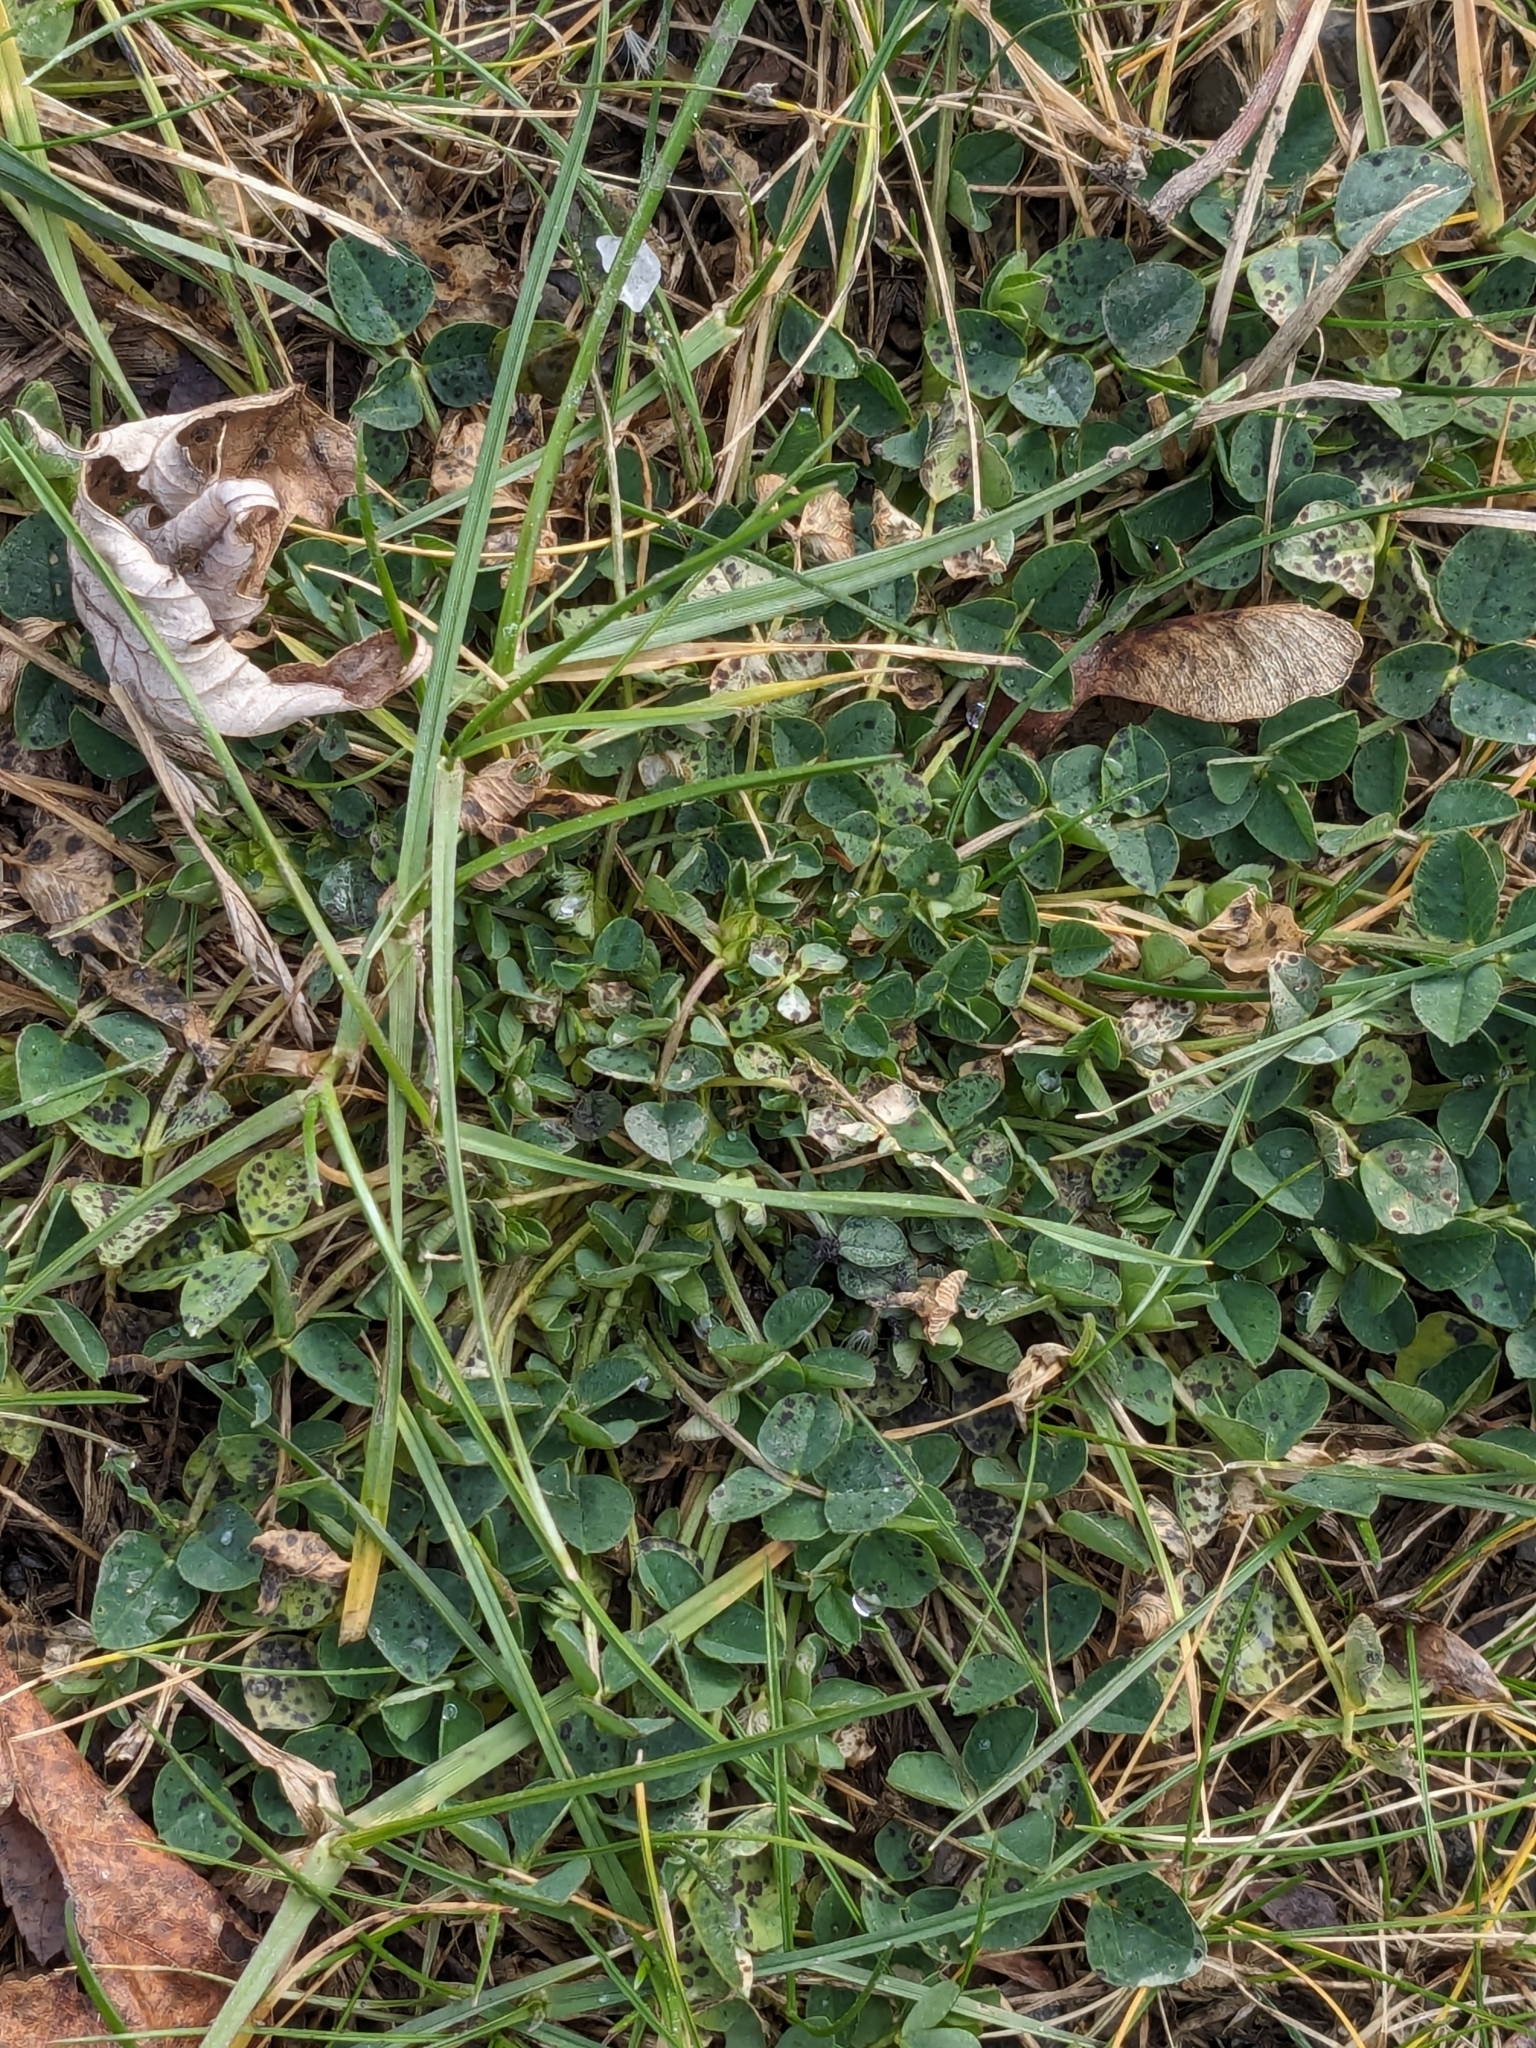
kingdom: Plantae
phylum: Tracheophyta
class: Magnoliopsida
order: Fabales
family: Fabaceae
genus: Medicago
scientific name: Medicago lupulina
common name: Black medick
